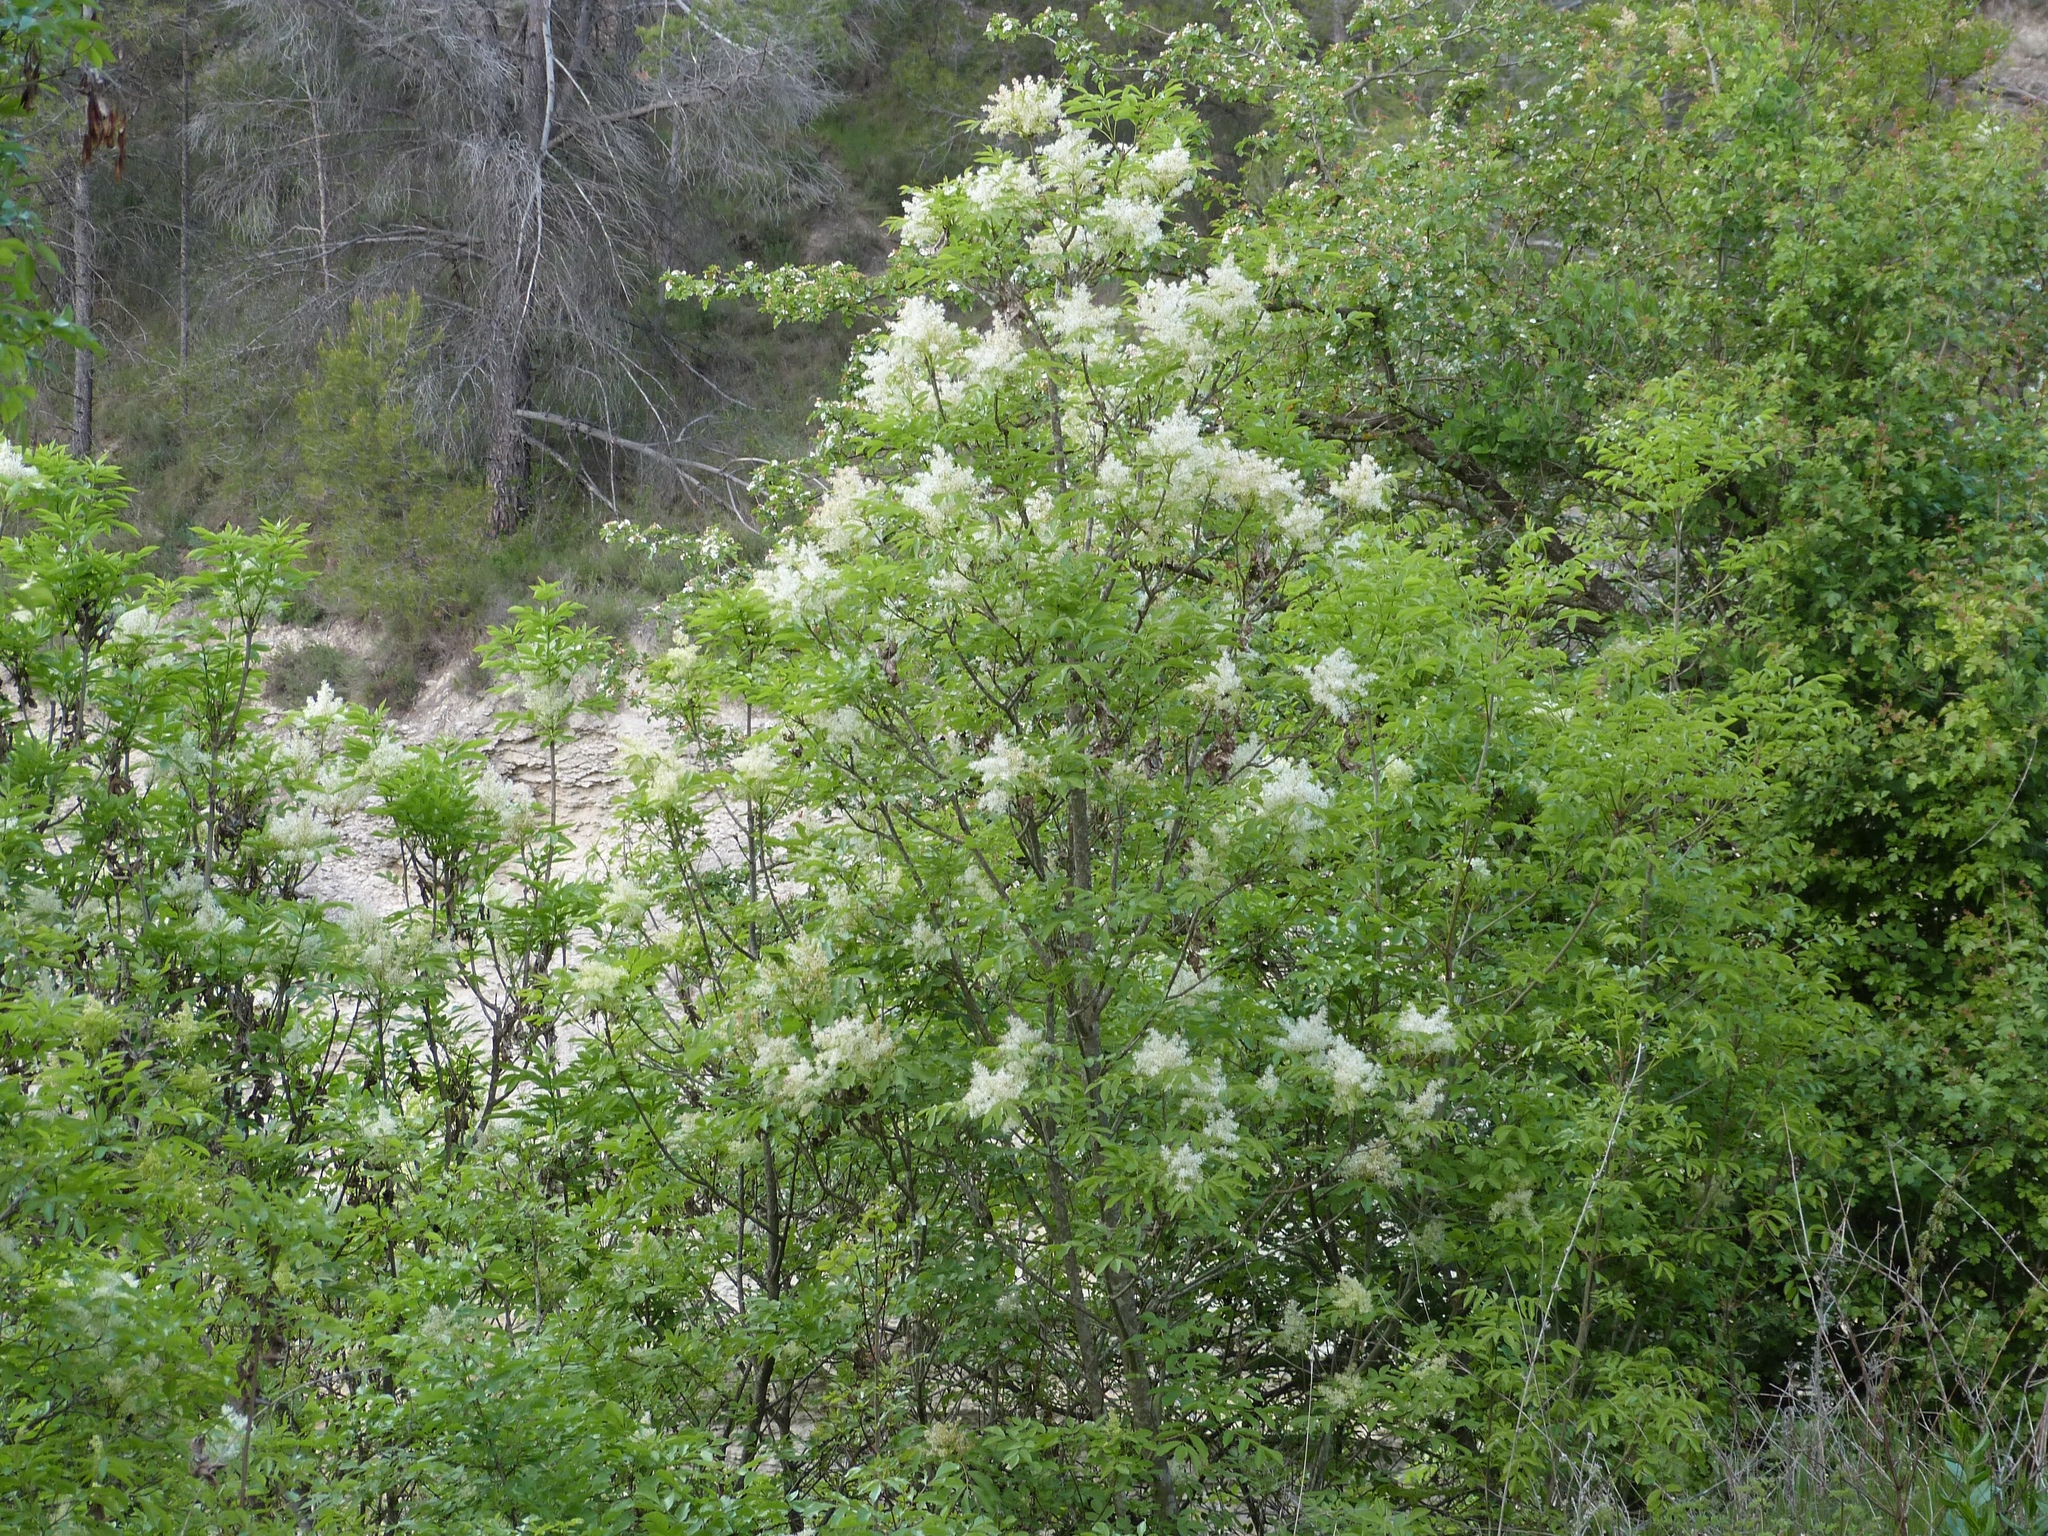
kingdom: Plantae
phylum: Tracheophyta
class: Magnoliopsida
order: Lamiales
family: Oleaceae
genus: Fraxinus
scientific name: Fraxinus ornus
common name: Manna ash
